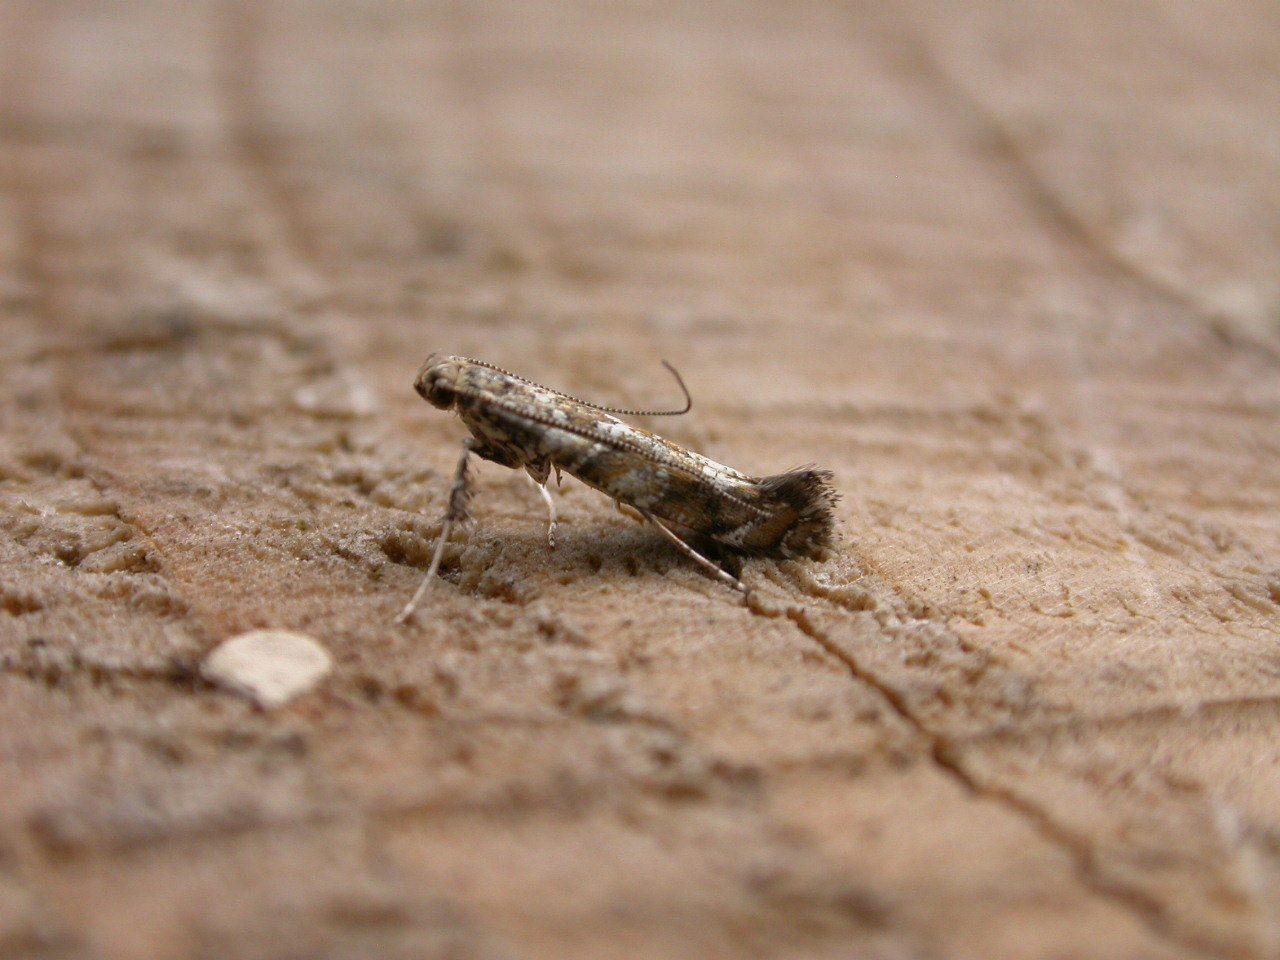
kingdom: Animalia
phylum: Arthropoda
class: Insecta
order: Lepidoptera
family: Gracillariidae
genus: Gracillaria
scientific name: Gracillaria syringella
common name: Common slender
